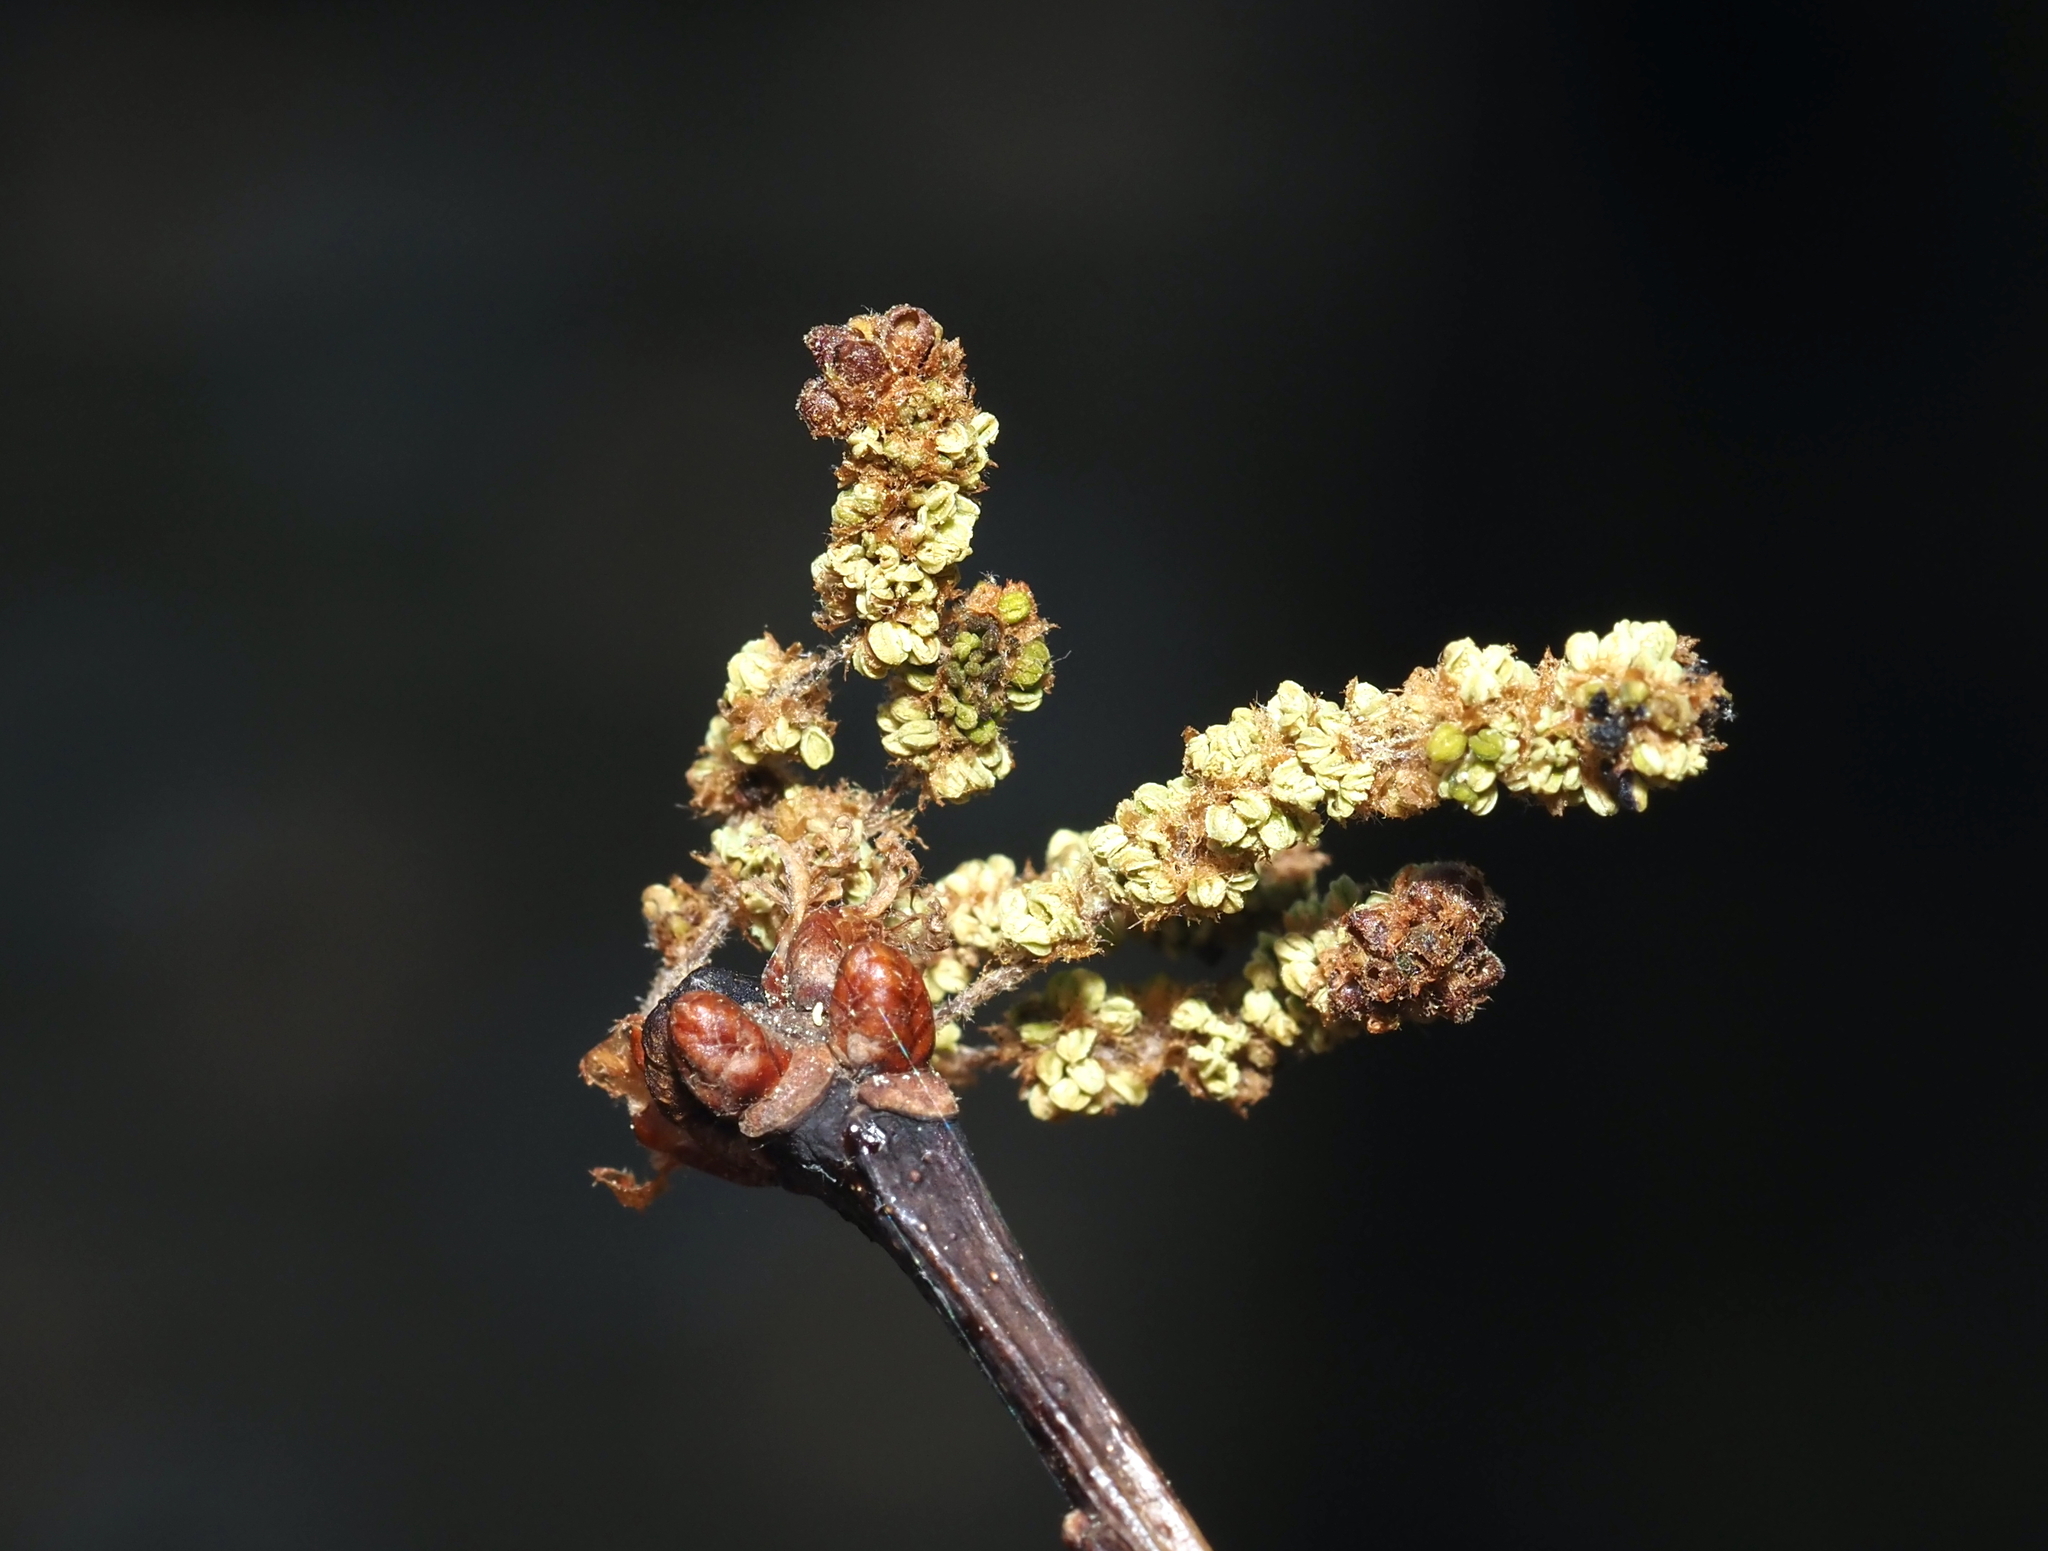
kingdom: Animalia
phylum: Arthropoda
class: Insecta
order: Hymenoptera
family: Cynipidae
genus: Callirhytis
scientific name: Callirhytis
